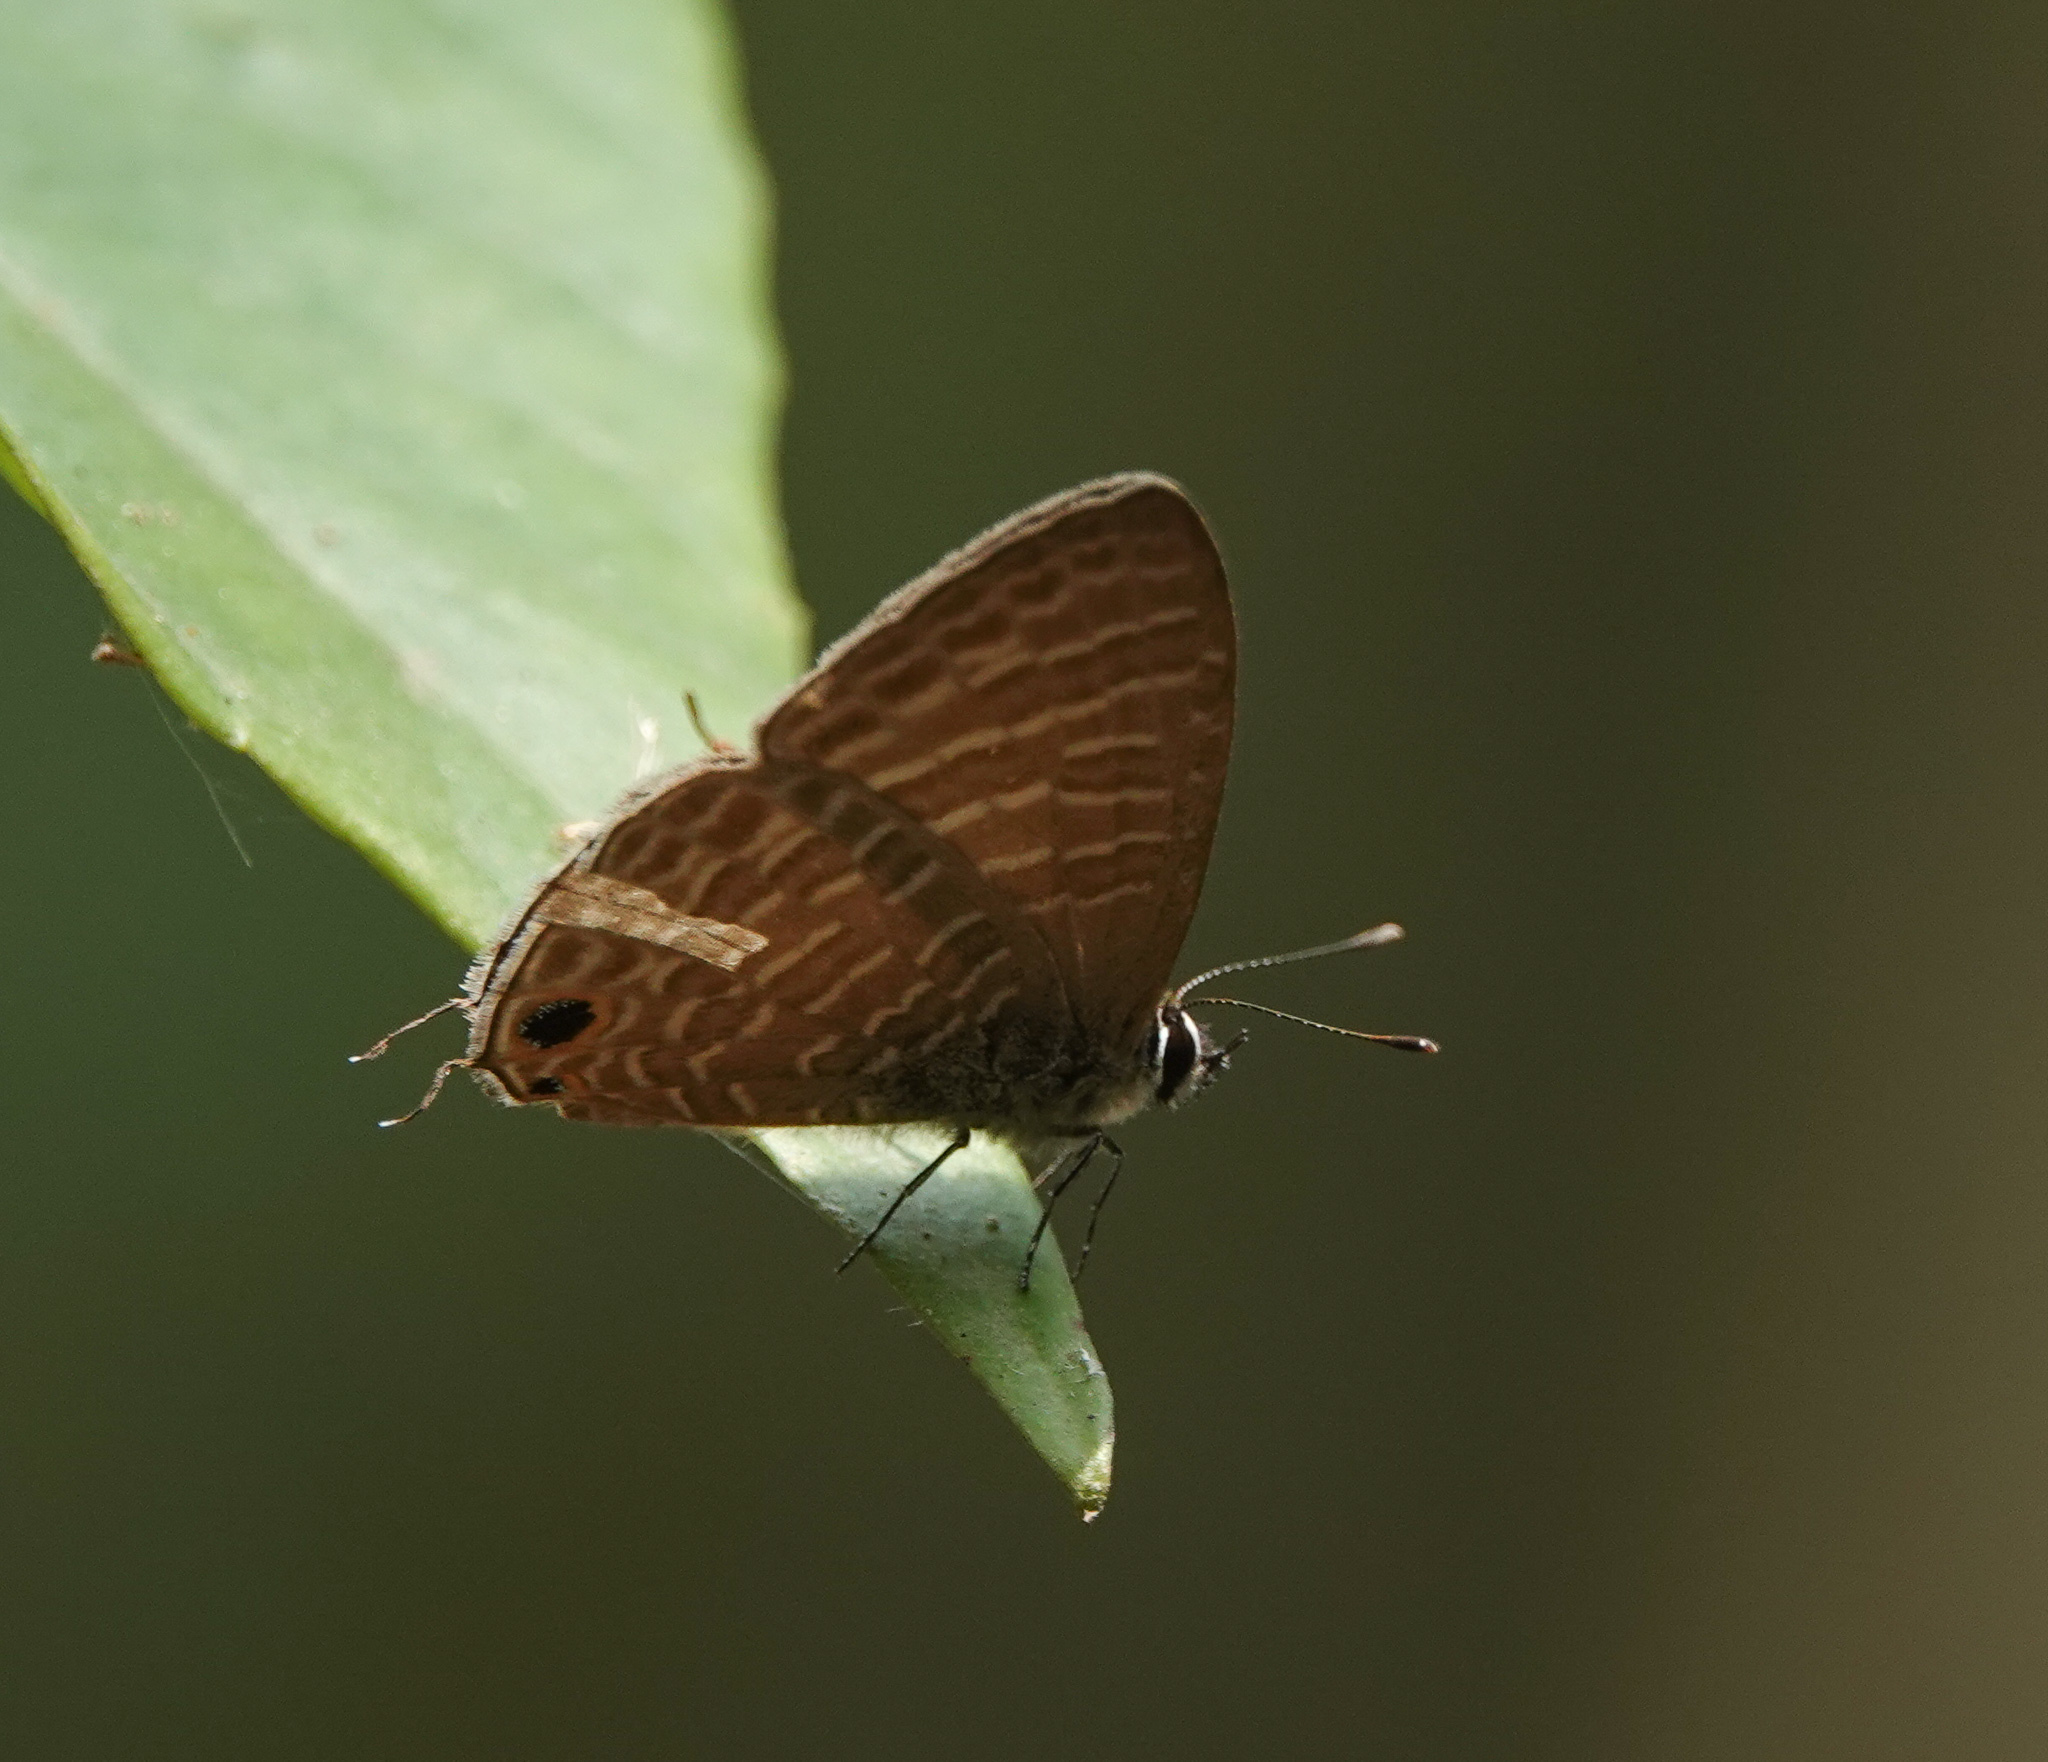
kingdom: Animalia
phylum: Arthropoda
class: Insecta
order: Lepidoptera
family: Lycaenidae
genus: Nacaduba
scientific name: Nacaduba kurava
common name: Transparent 6-line blue
